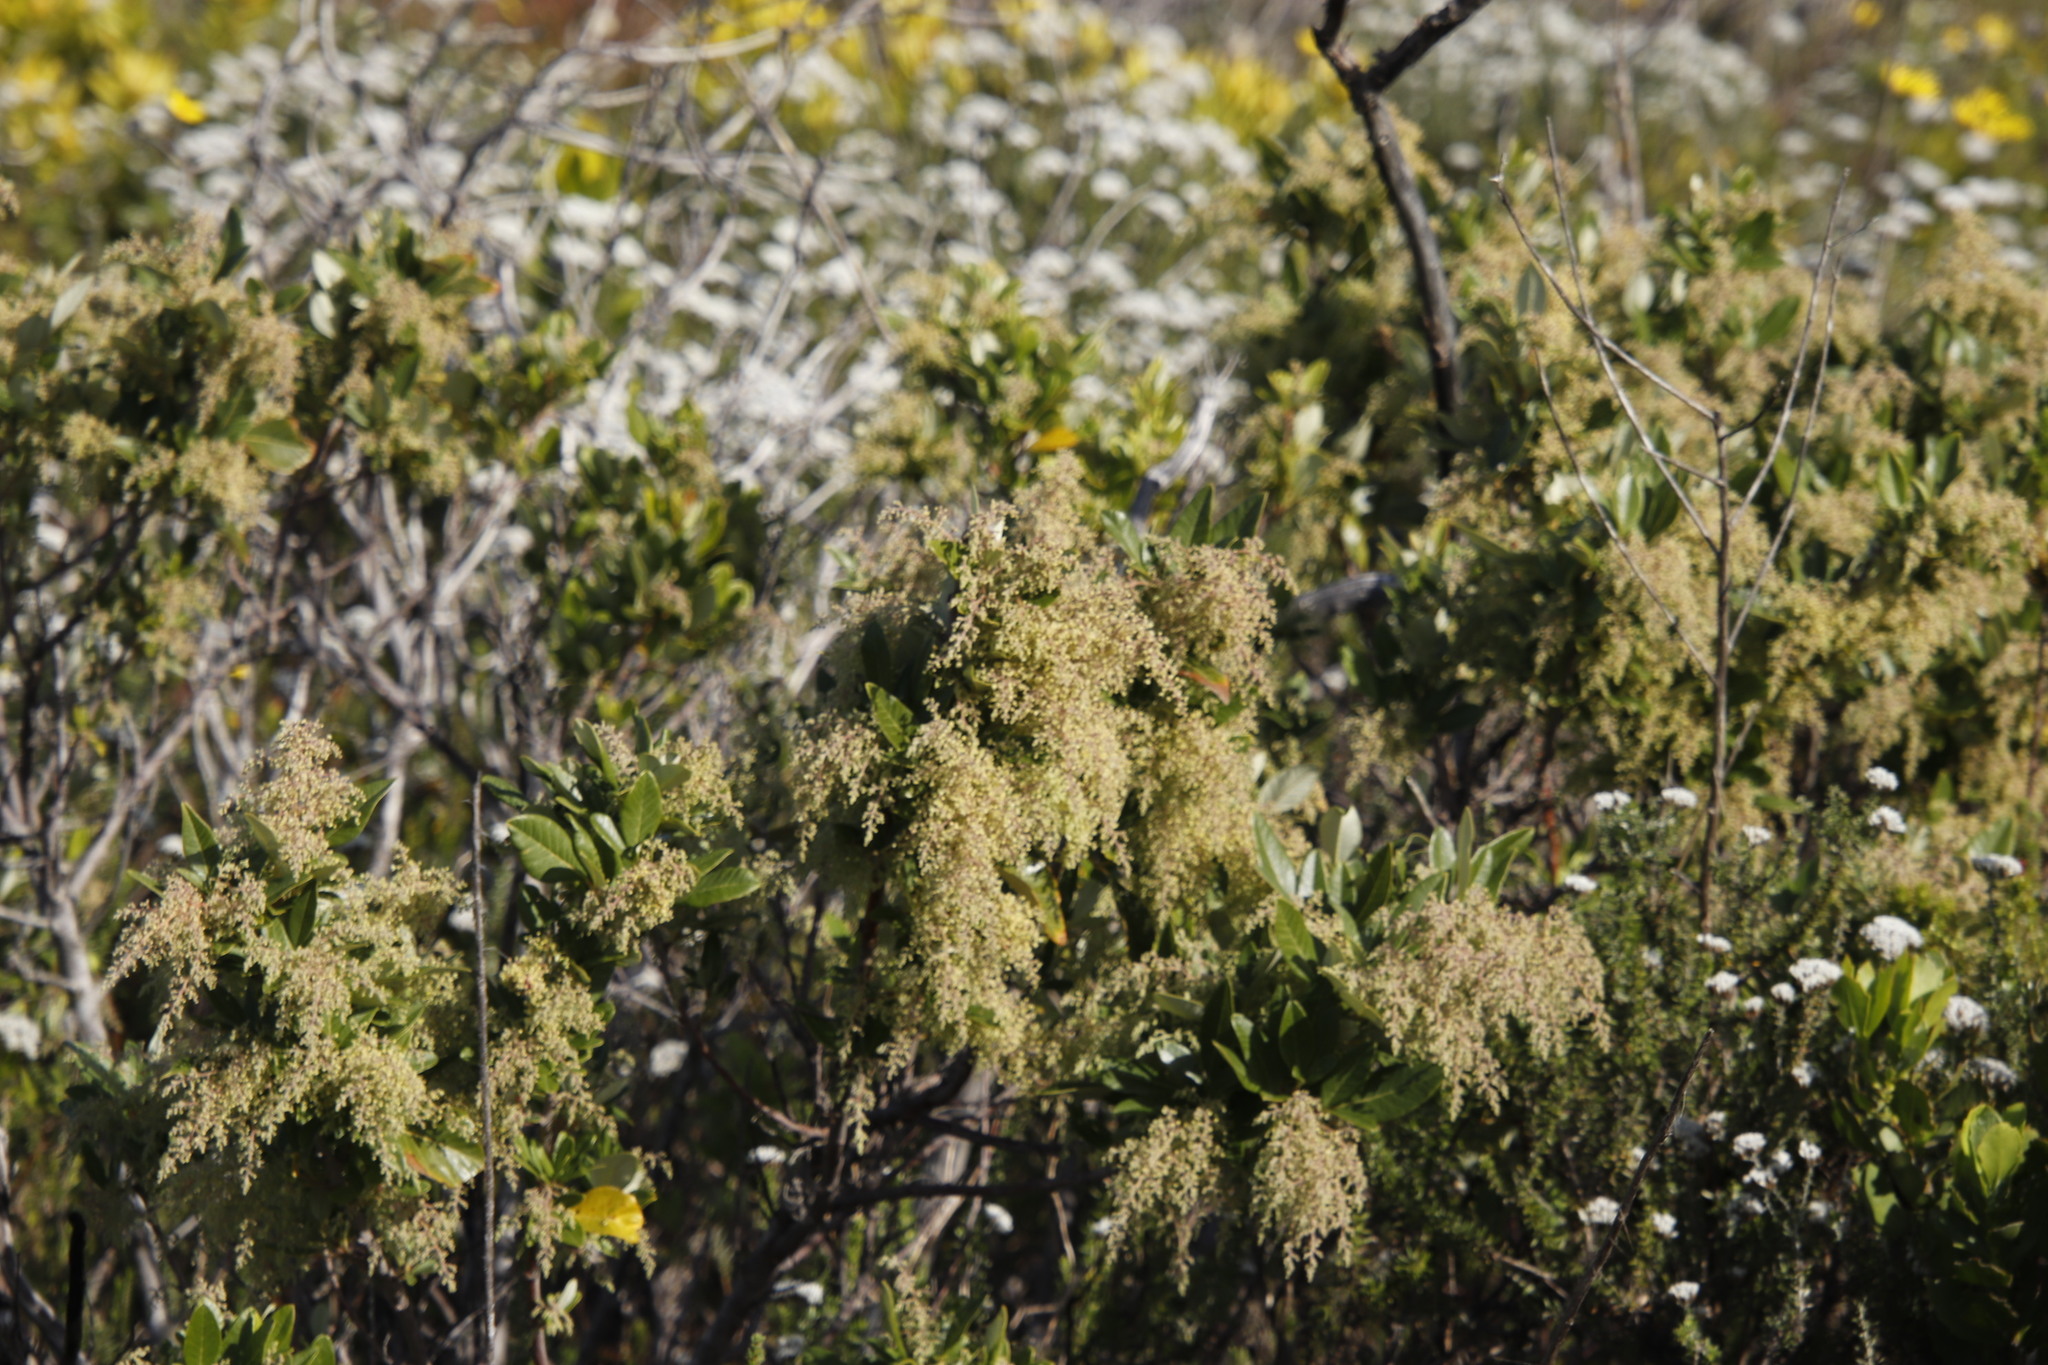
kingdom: Plantae
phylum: Tracheophyta
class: Magnoliopsida
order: Sapindales
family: Anacardiaceae
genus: Searsia
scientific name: Searsia tomentosa
